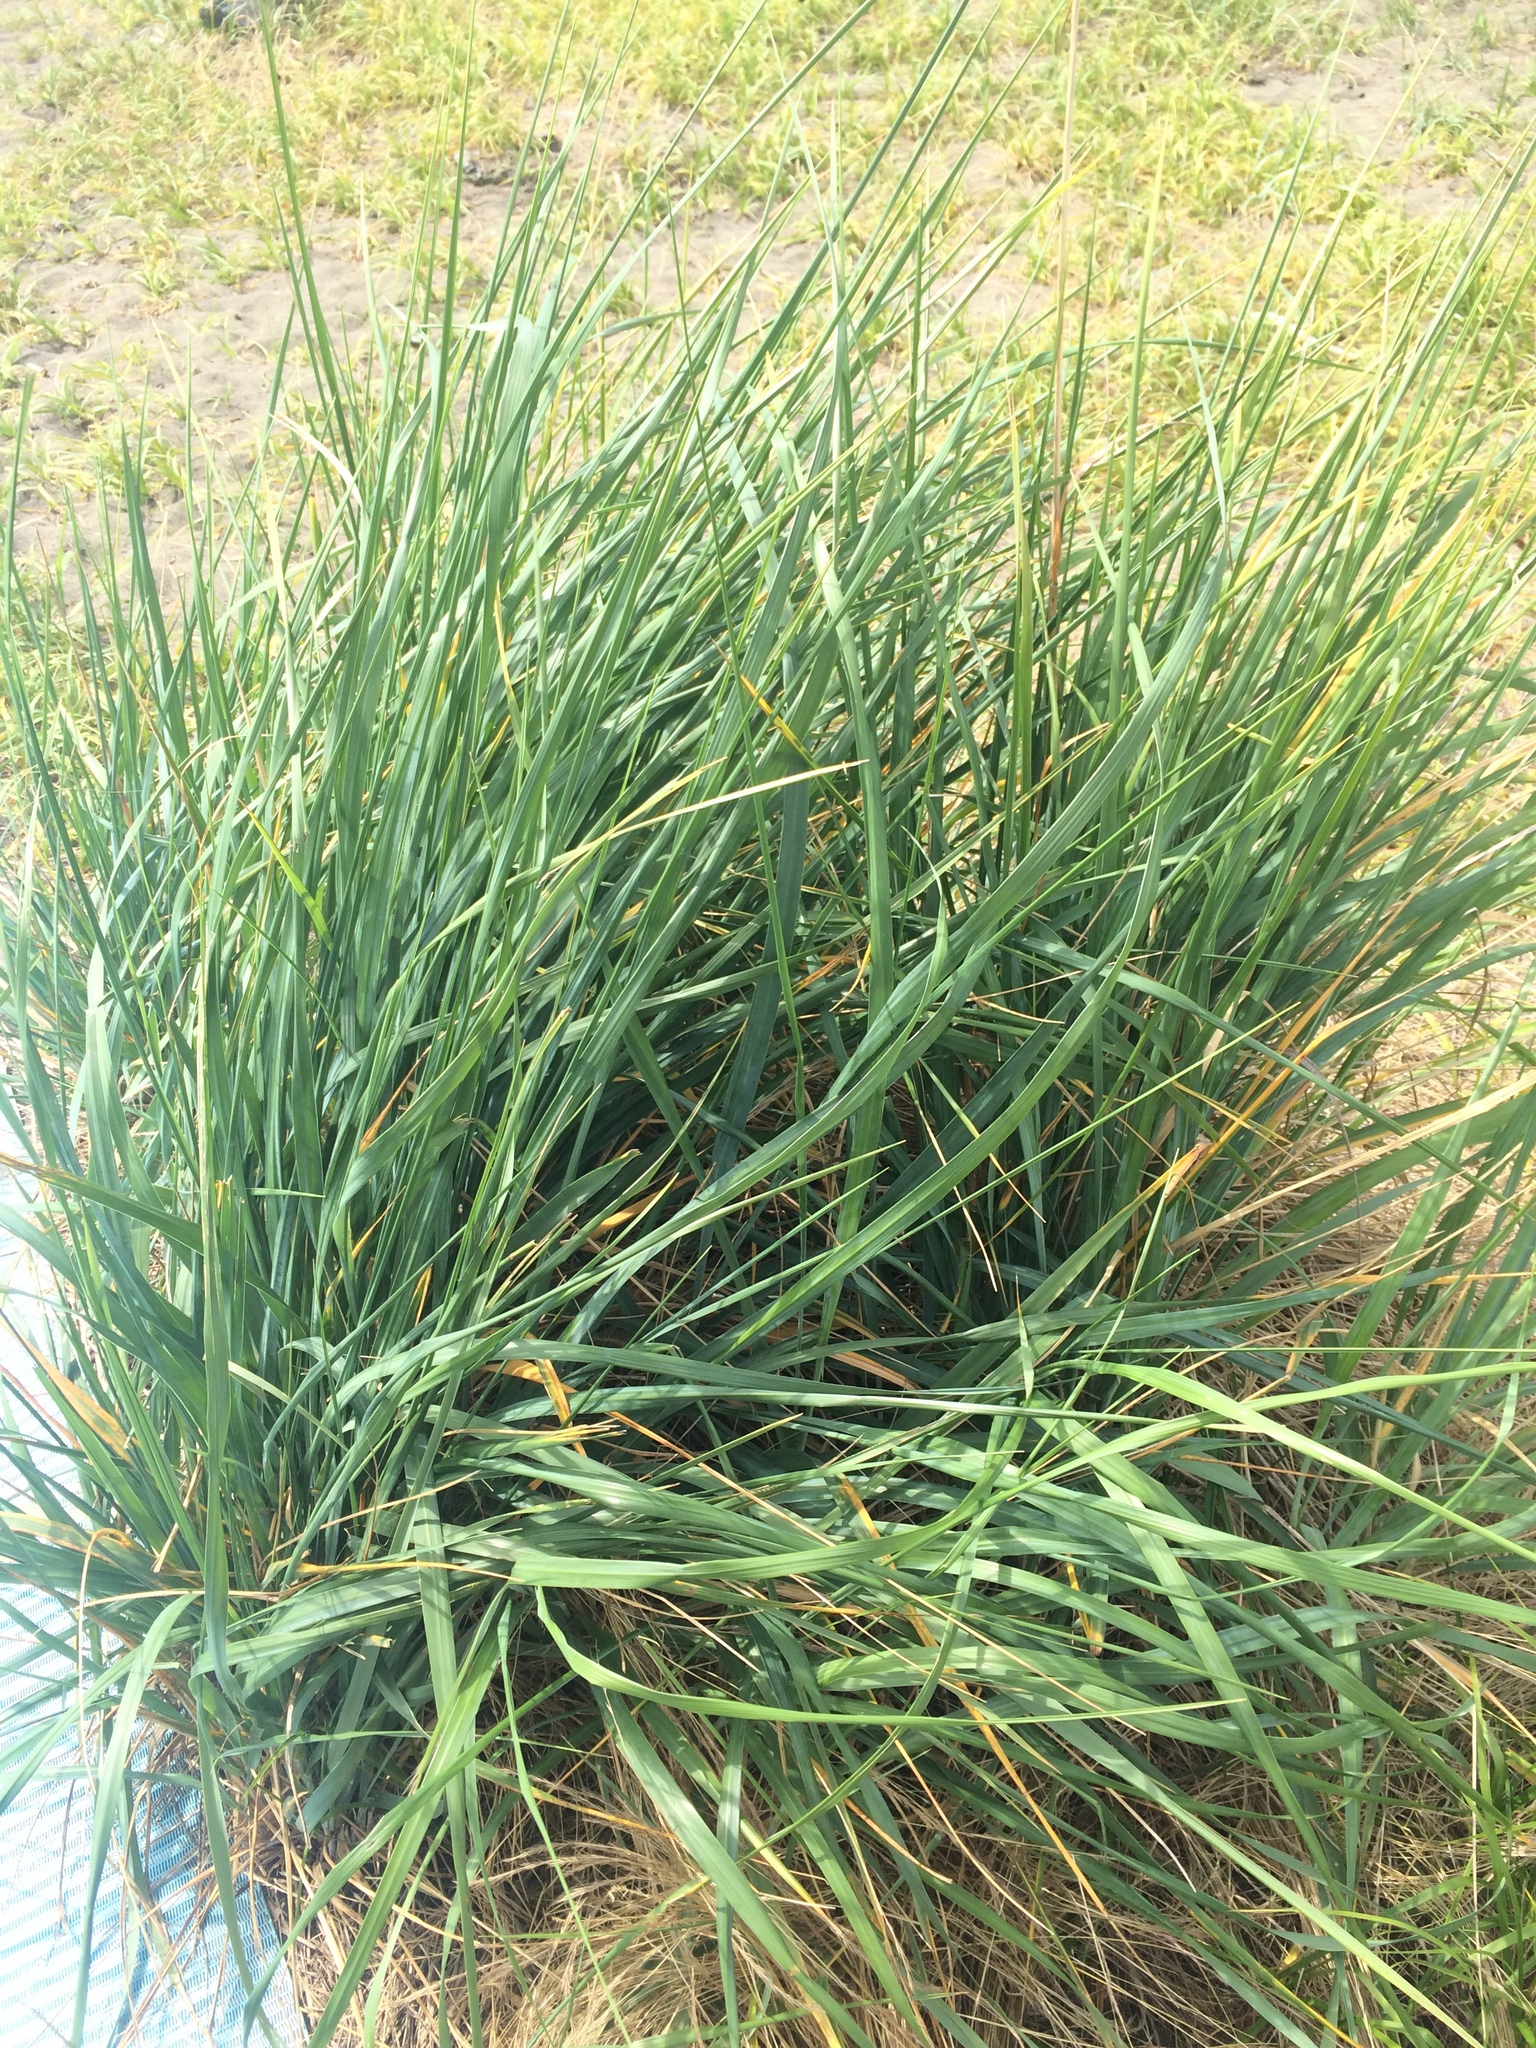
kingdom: Plantae
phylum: Tracheophyta
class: Liliopsida
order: Poales
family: Poaceae
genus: Leymus
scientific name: Leymus mollis
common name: American dune grass
